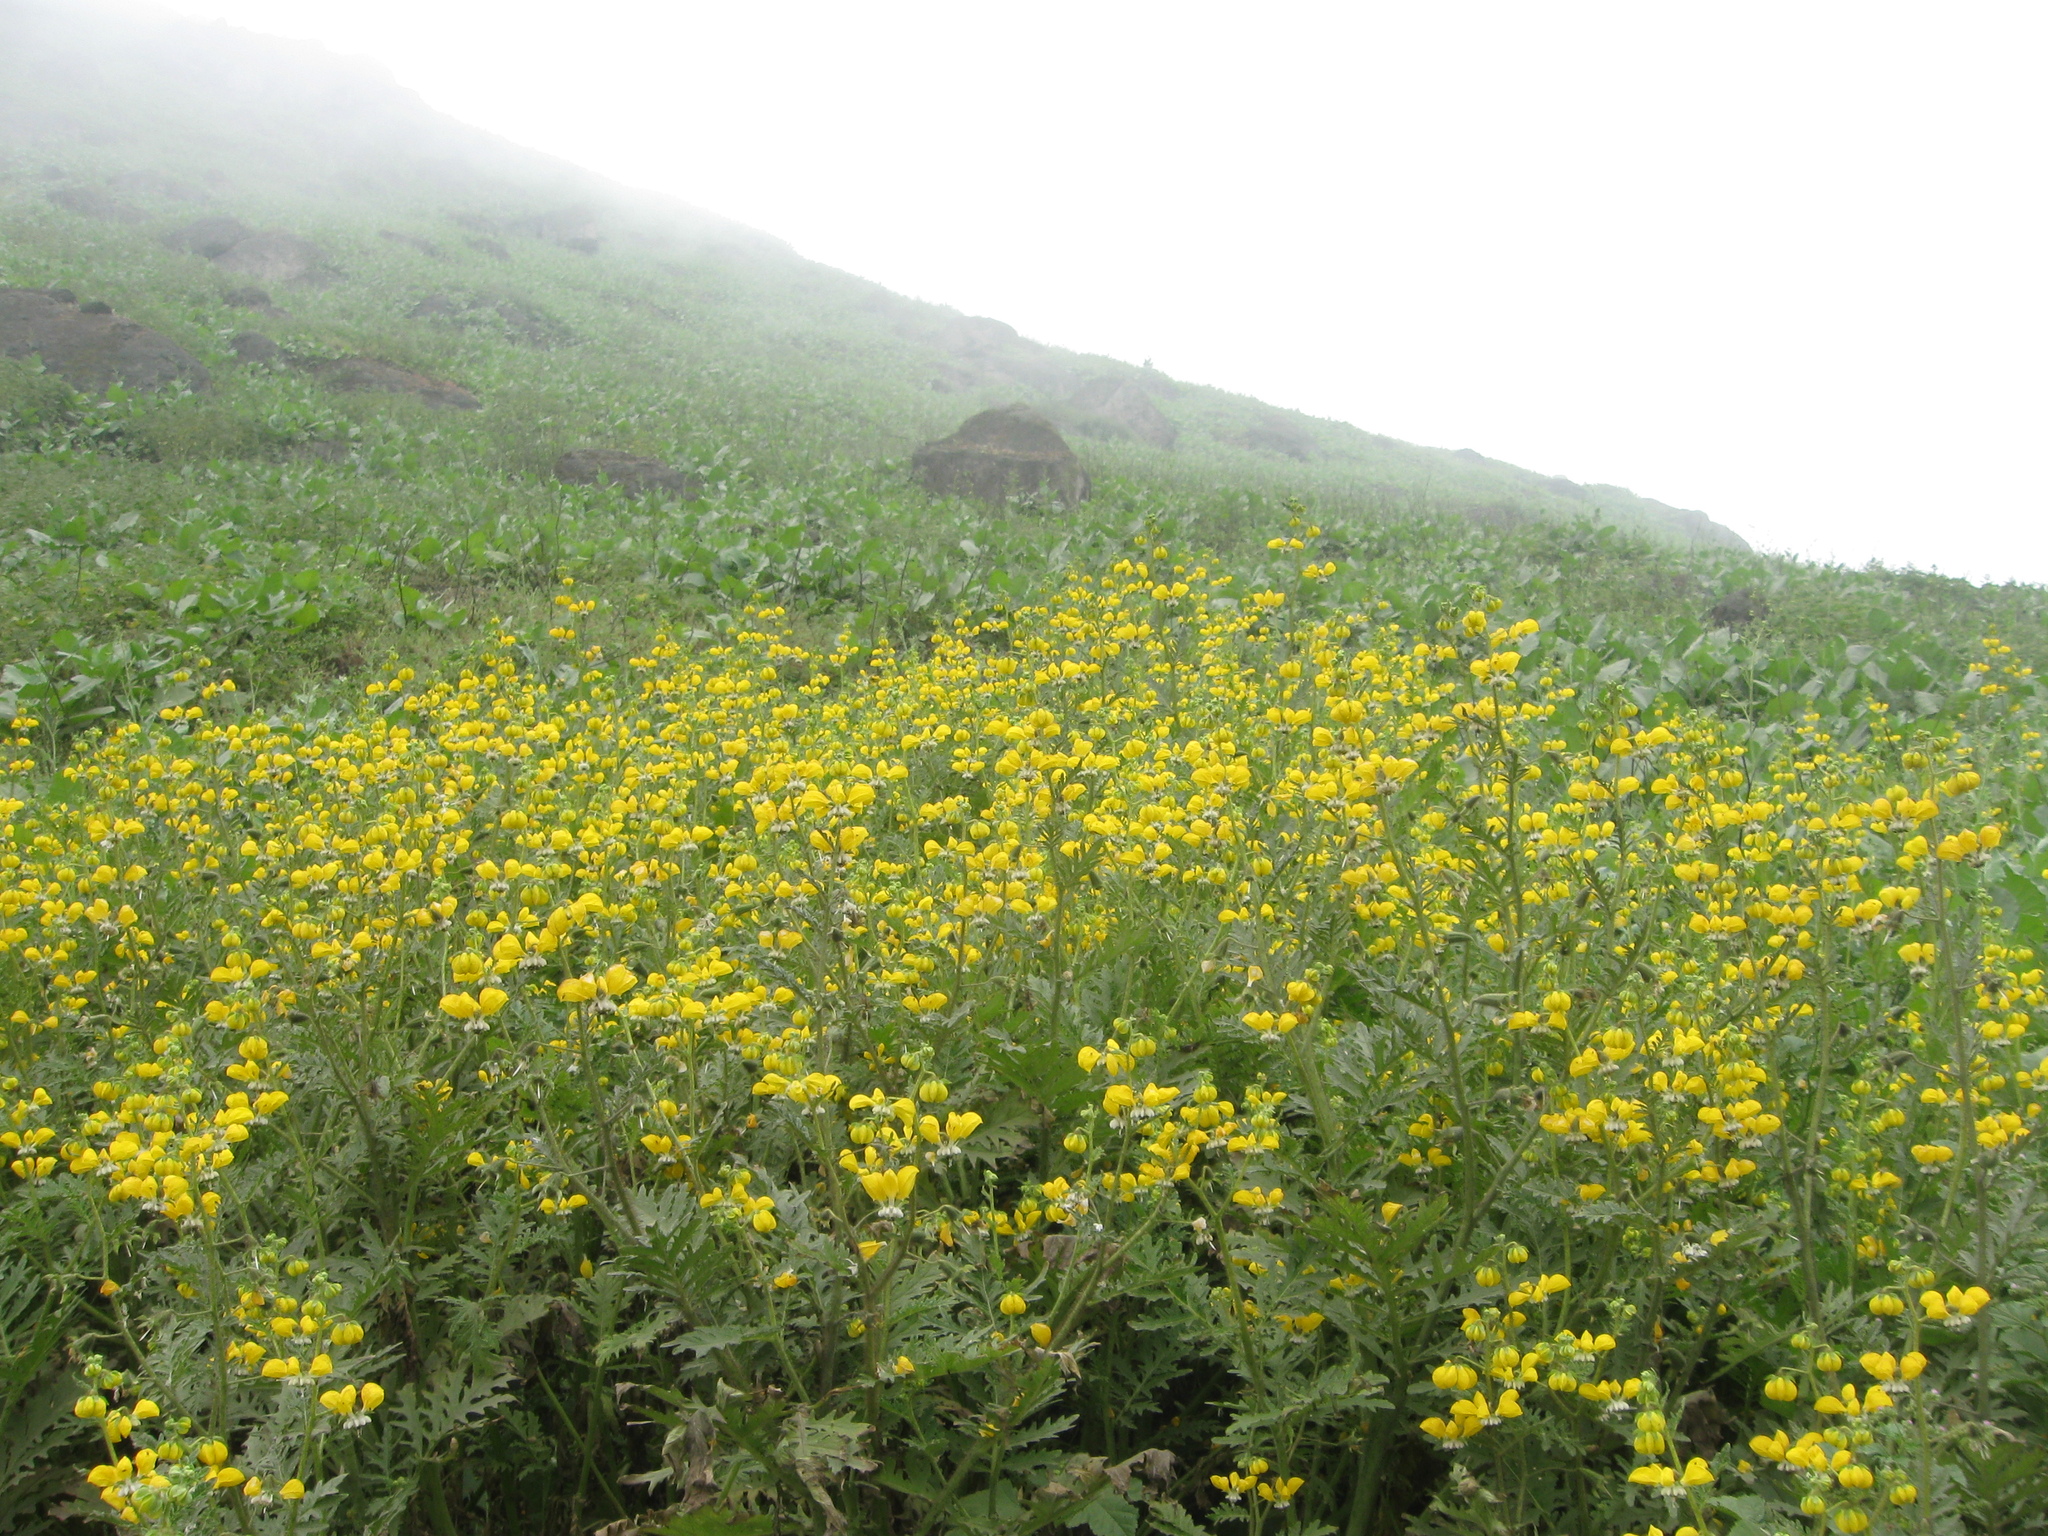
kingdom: Plantae
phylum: Tracheophyta
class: Magnoliopsida
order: Cornales
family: Loasaceae
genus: Nasa
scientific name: Nasa urens
